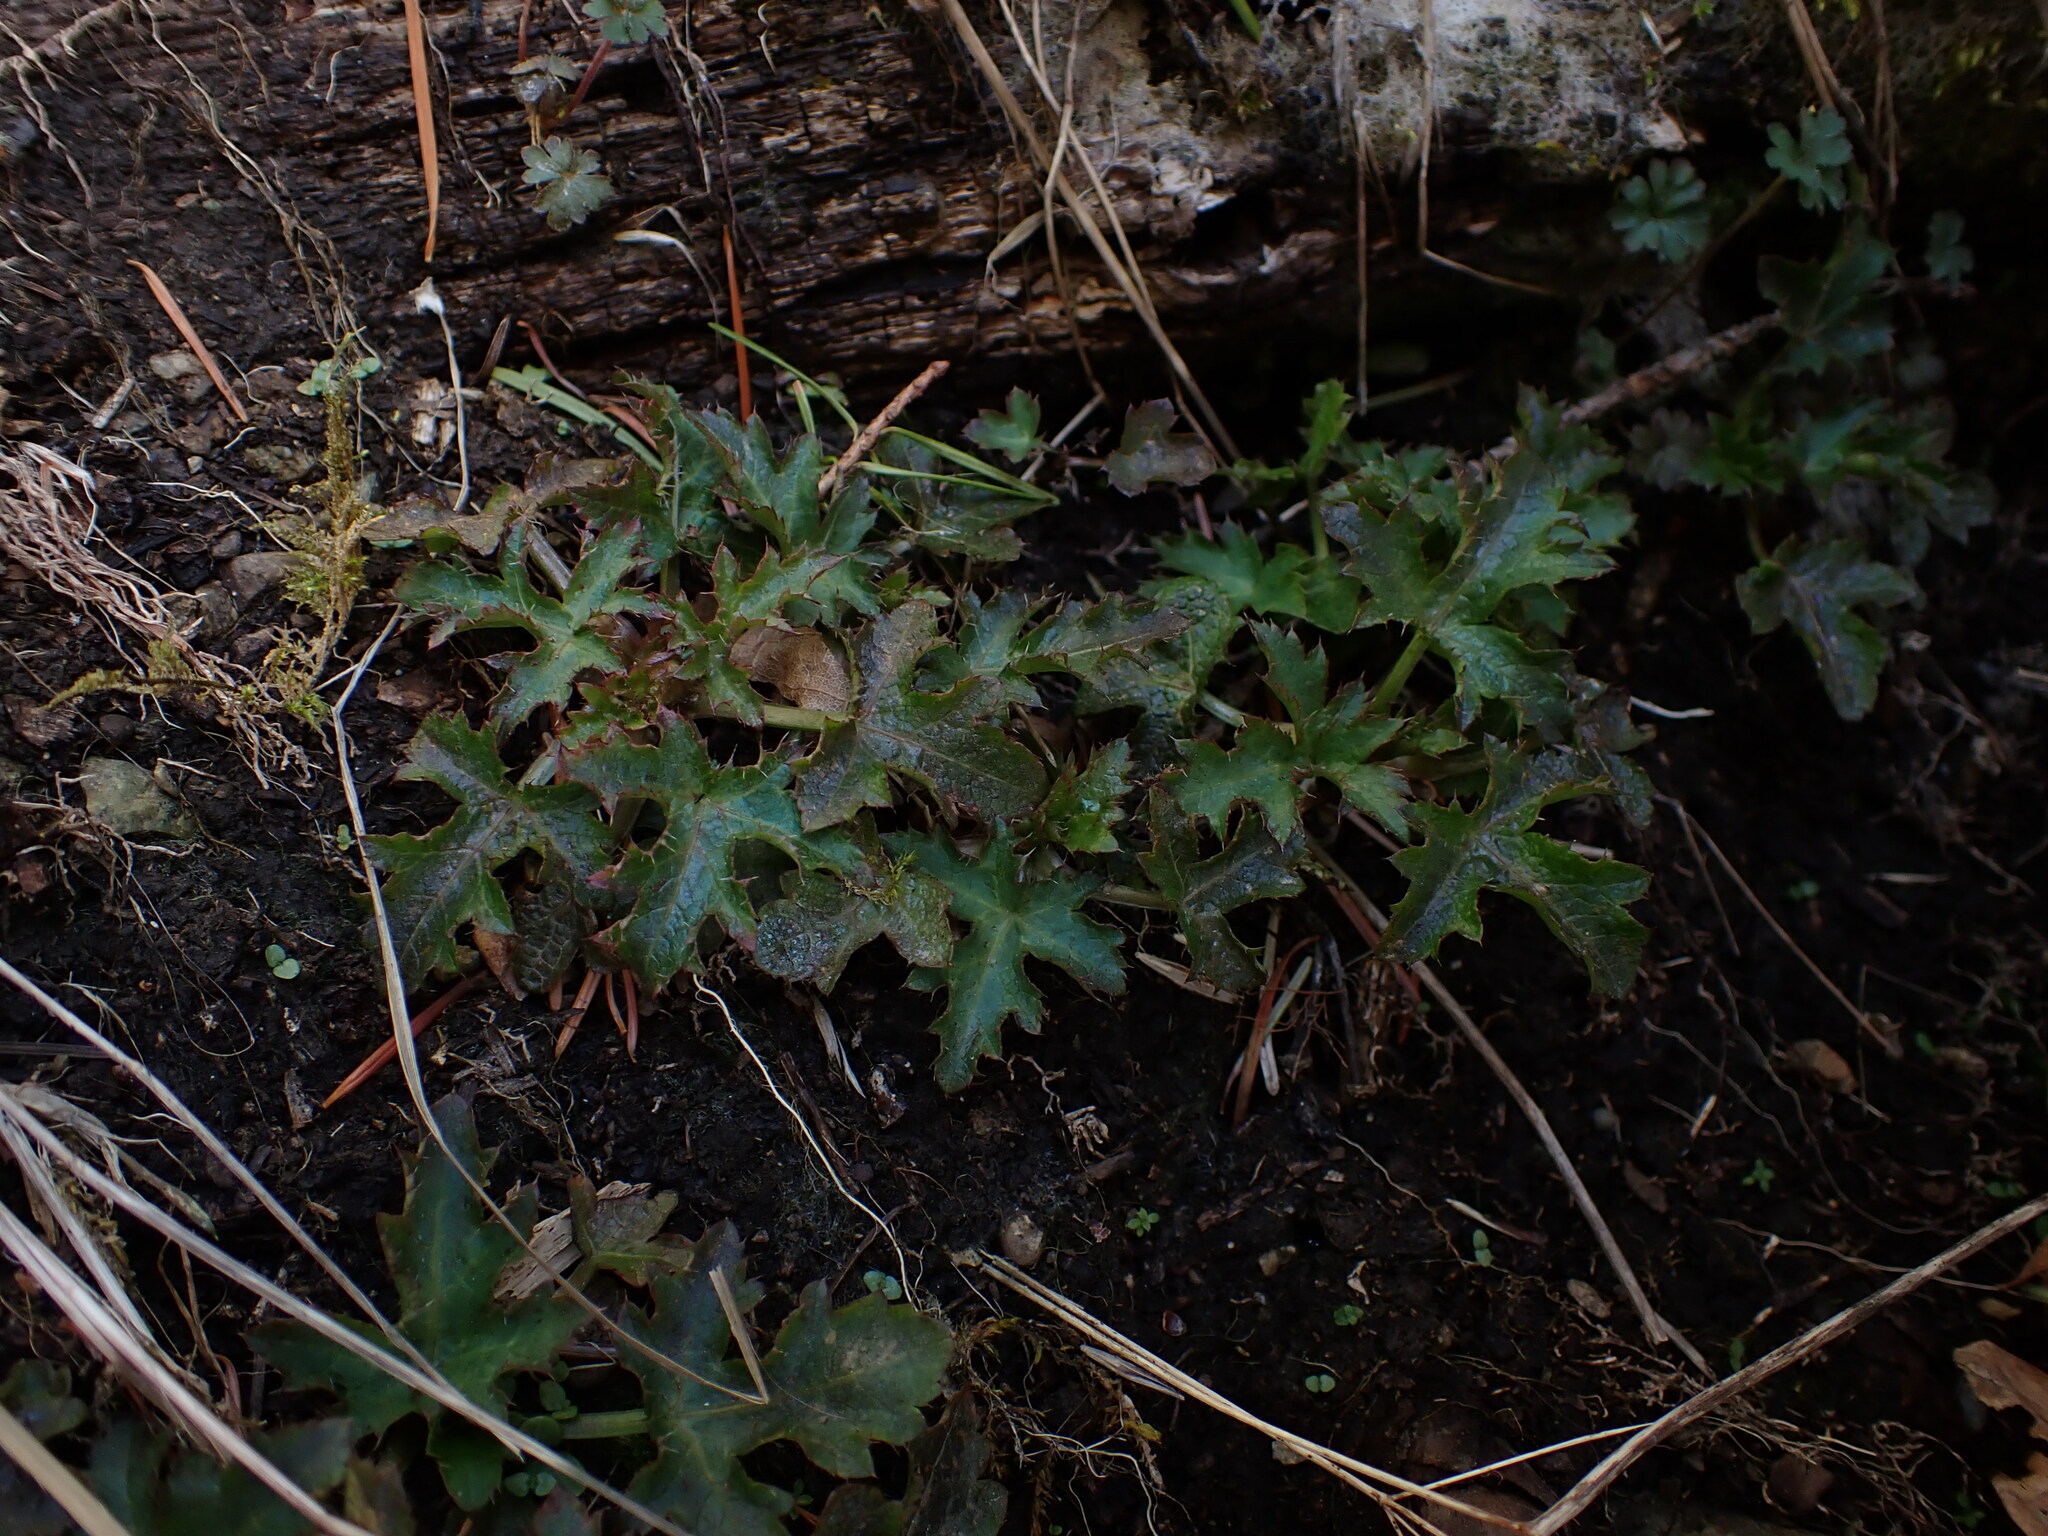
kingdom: Plantae
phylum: Tracheophyta
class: Magnoliopsida
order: Apiales
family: Apiaceae
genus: Sanicula
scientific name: Sanicula crassicaulis
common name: Western snakeroot
